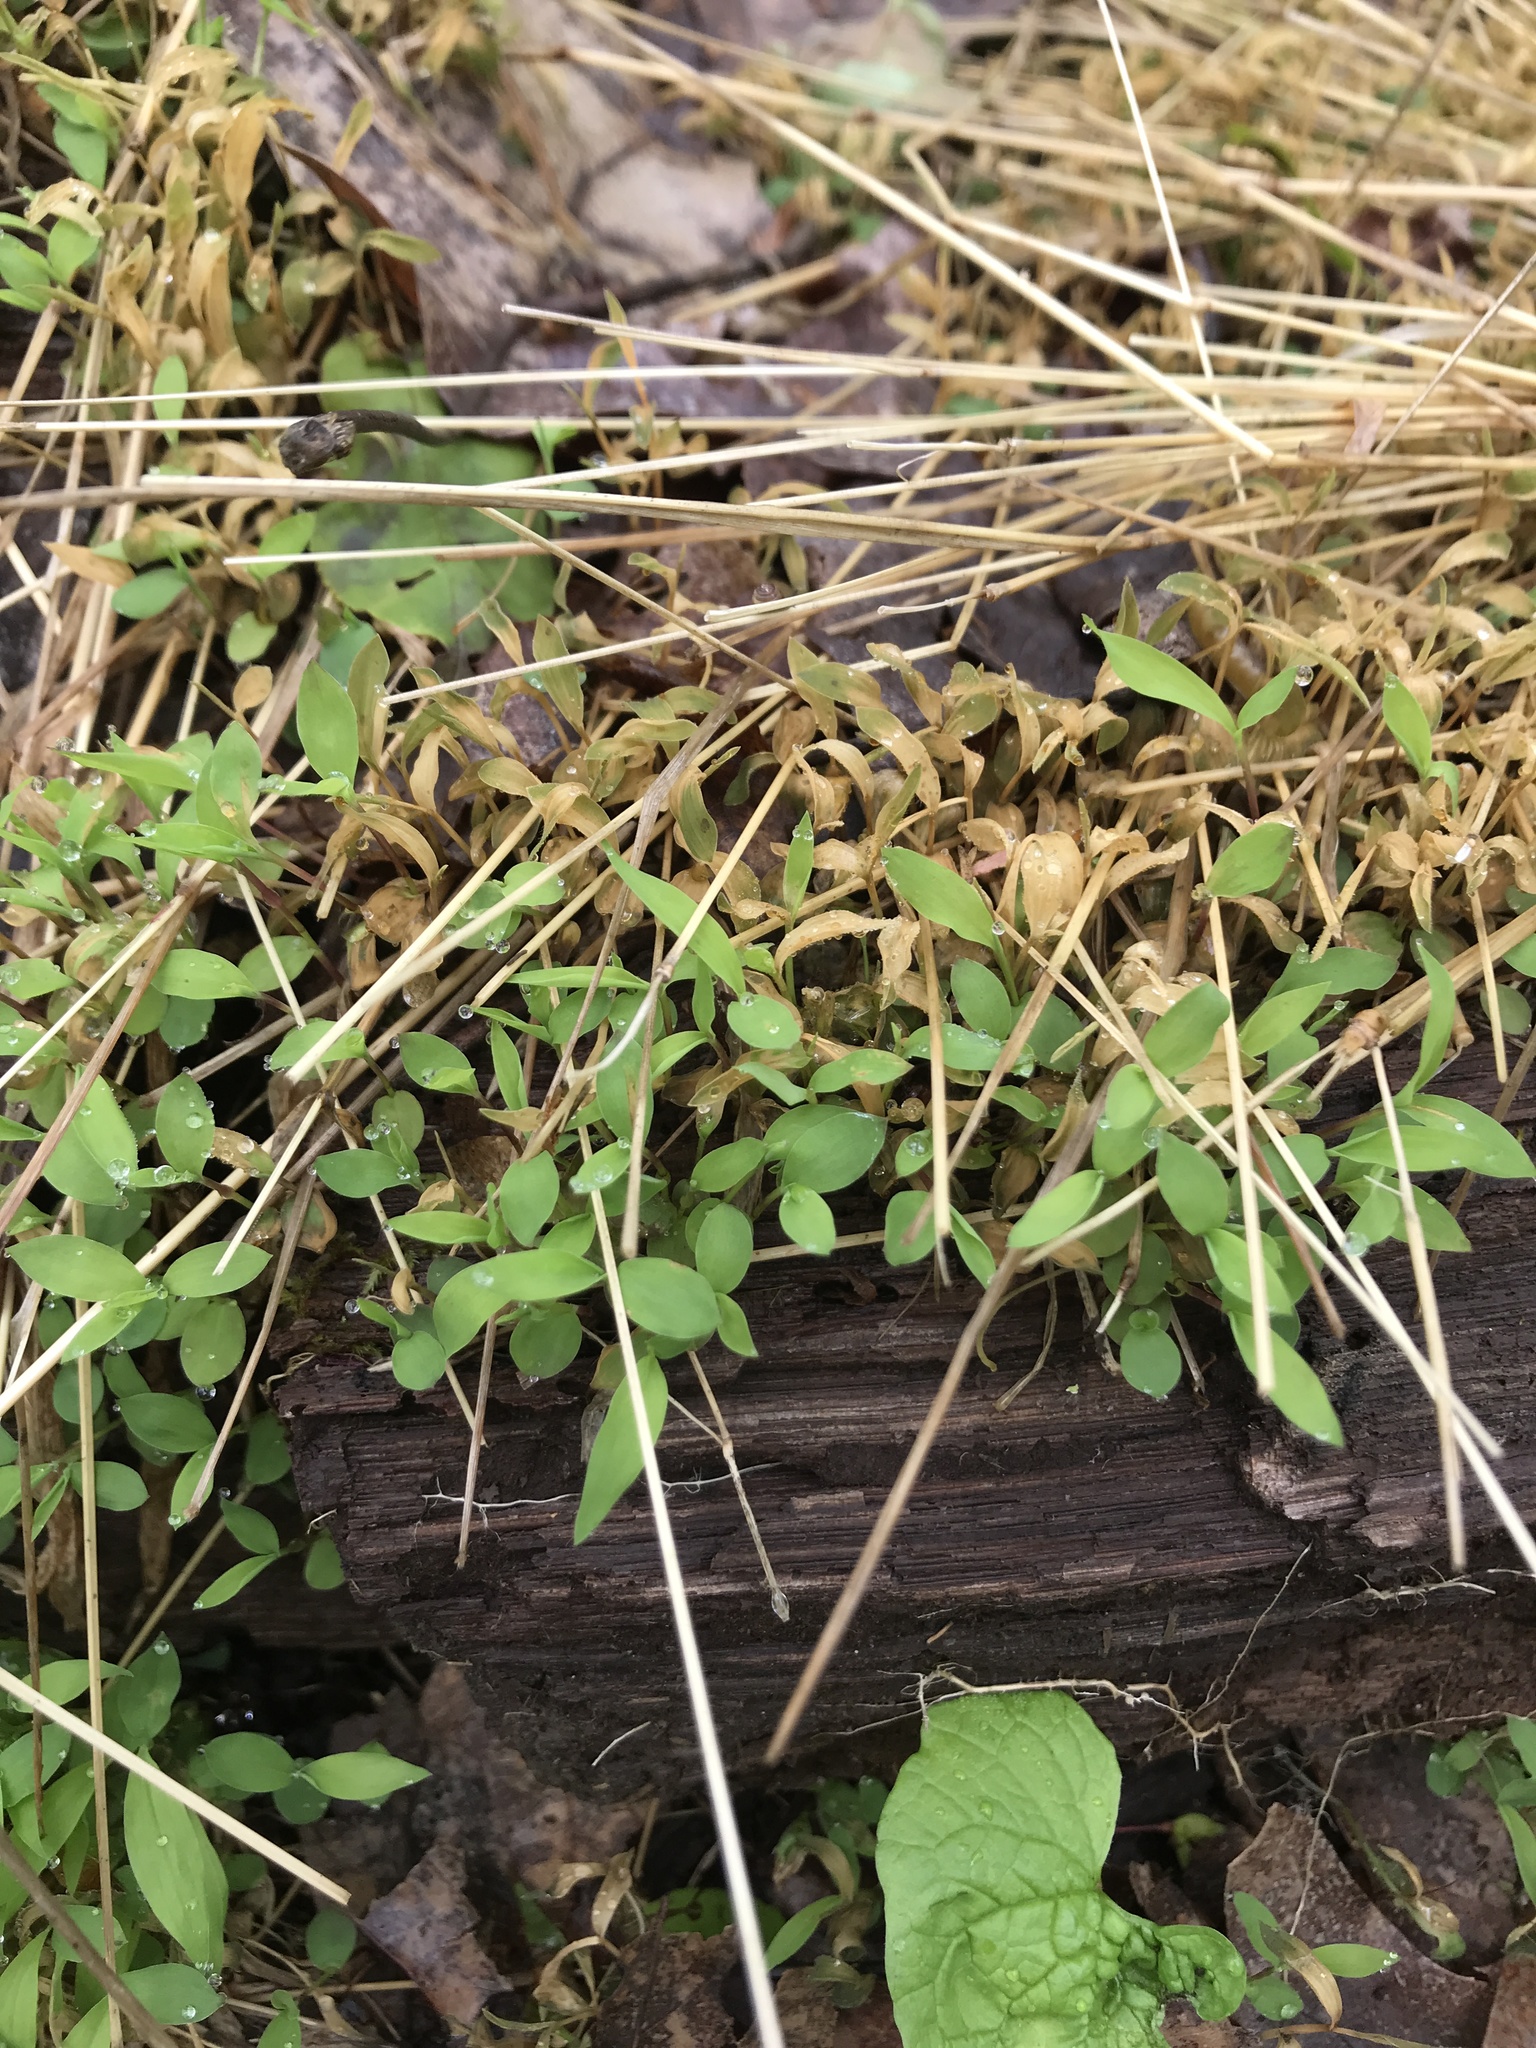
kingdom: Plantae
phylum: Tracheophyta
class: Liliopsida
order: Poales
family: Poaceae
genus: Microstegium
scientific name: Microstegium vimineum
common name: Japanese stiltgrass
